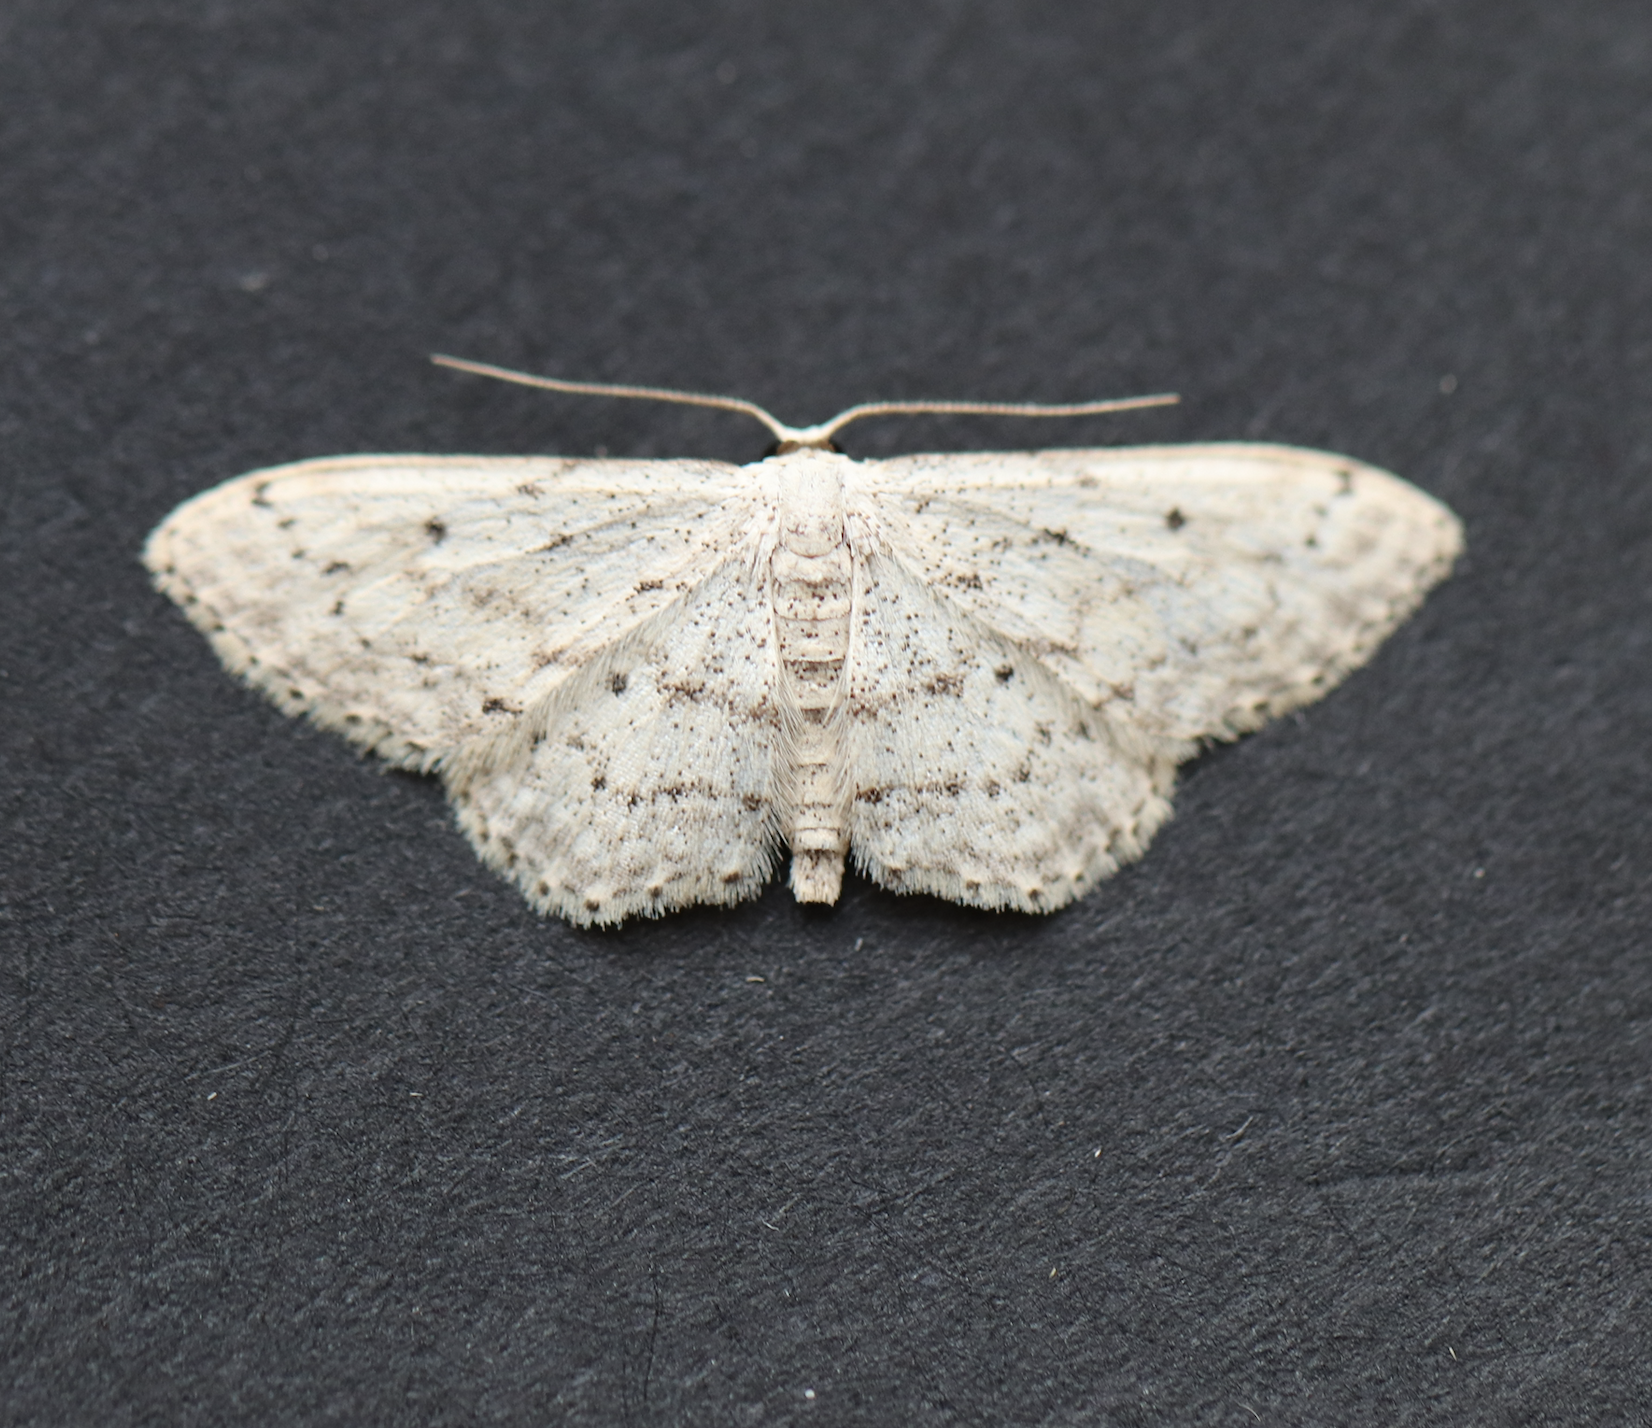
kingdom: Animalia
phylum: Arthropoda
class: Insecta
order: Lepidoptera
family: Geometridae
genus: Idaea
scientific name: Idaea seriata
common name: Small dusty wave
